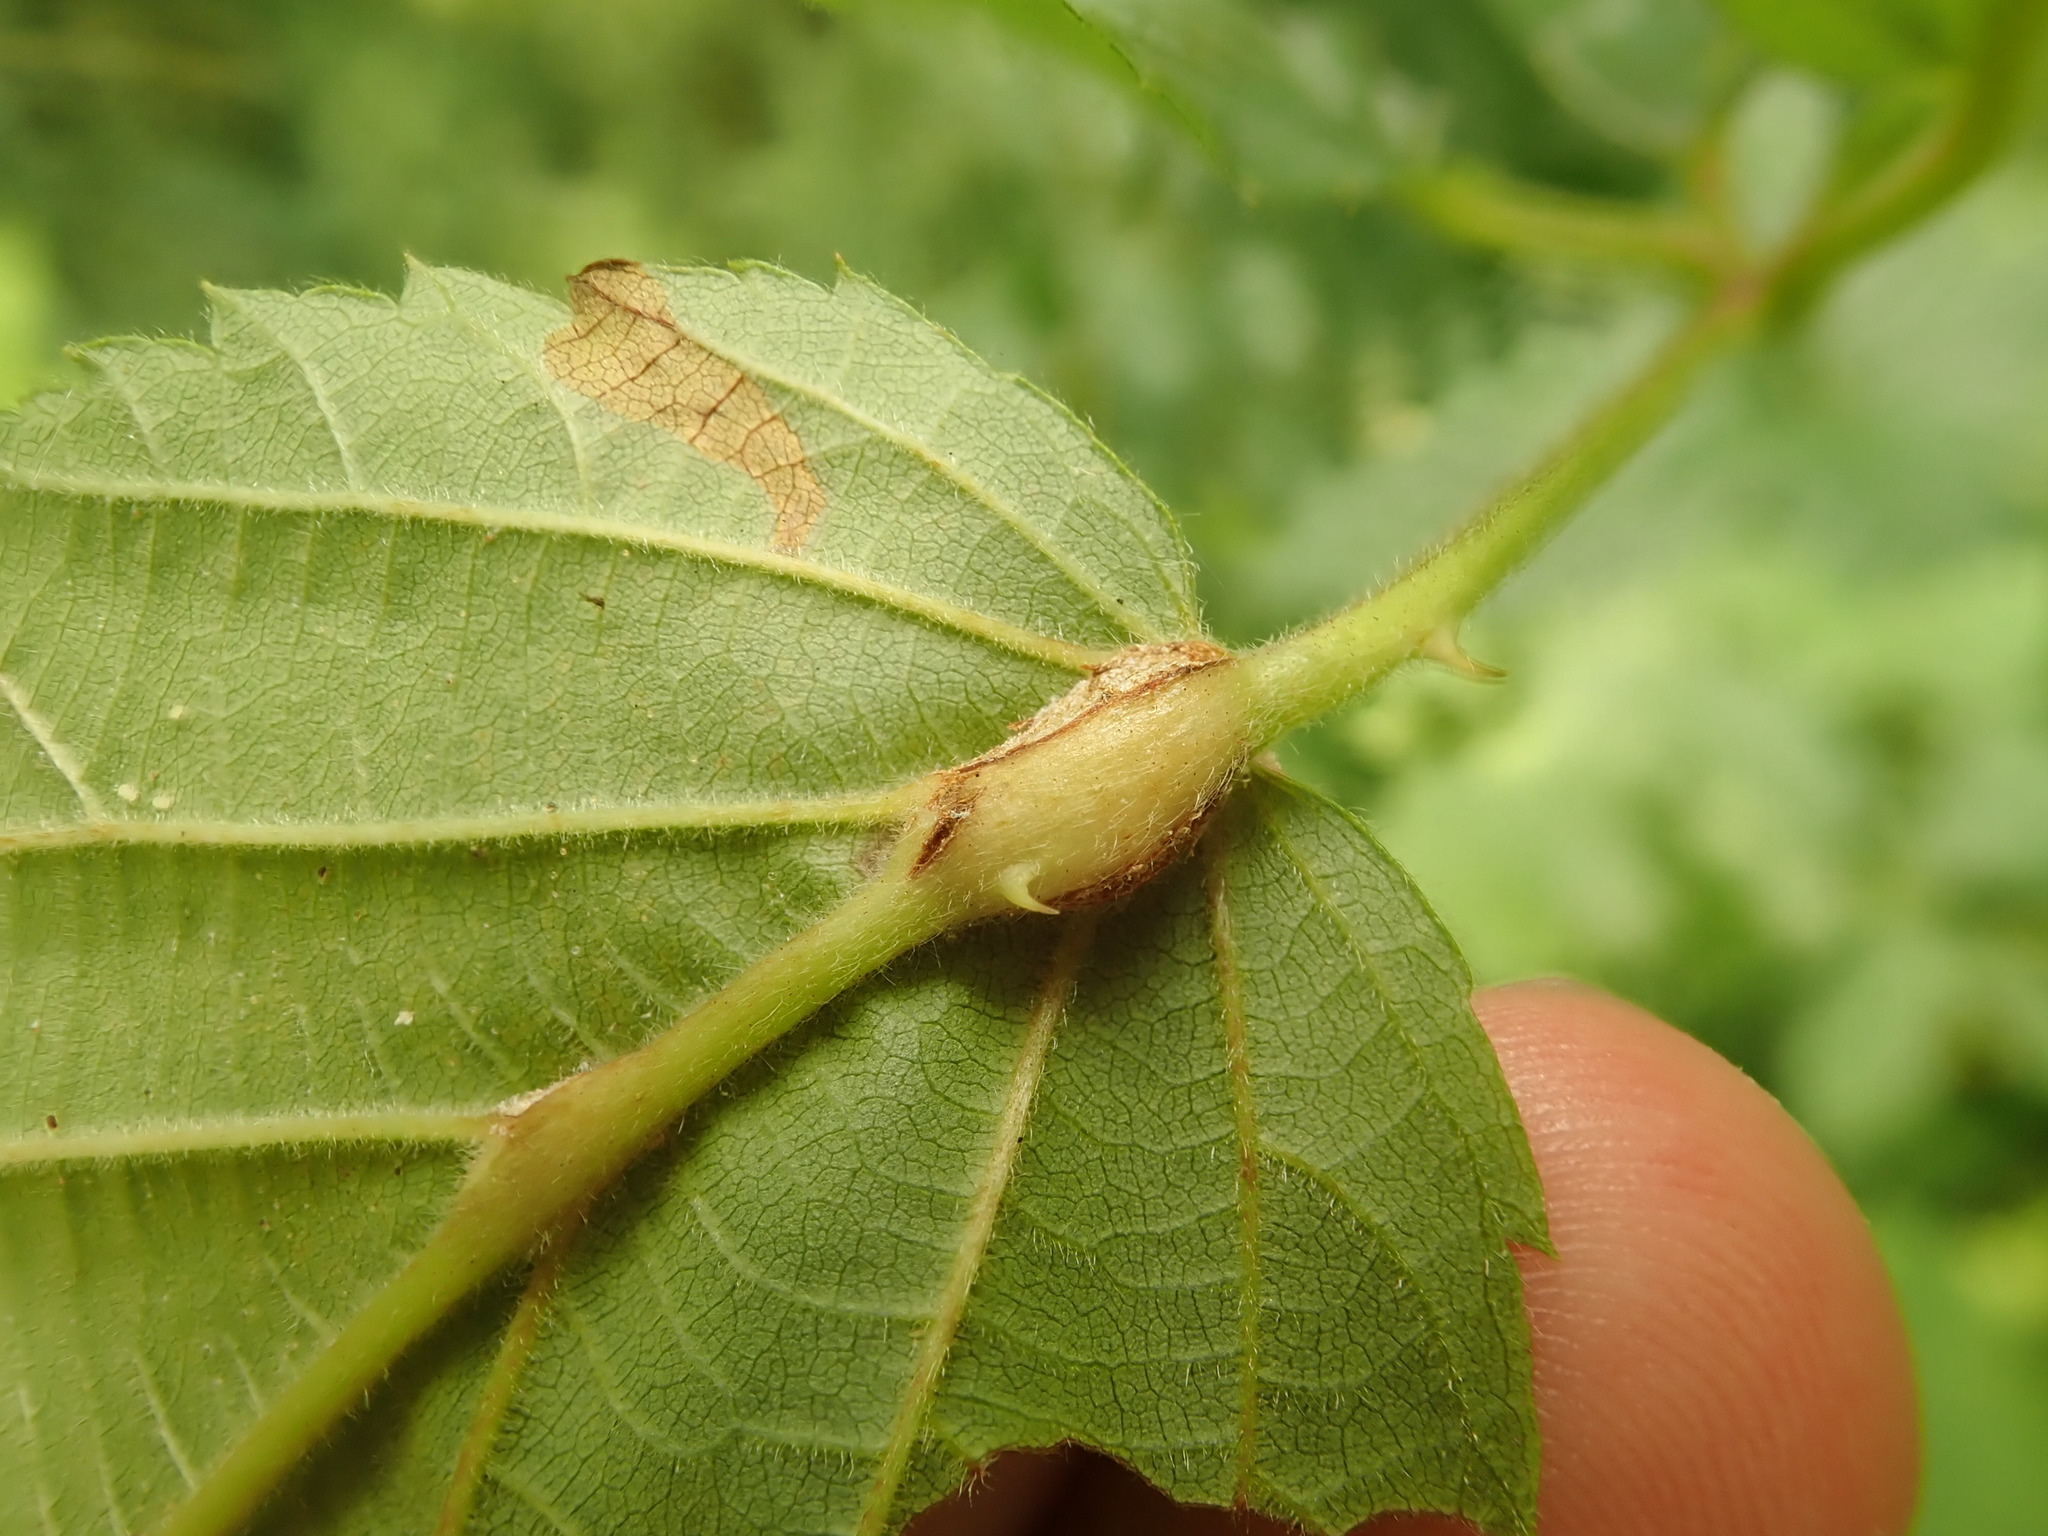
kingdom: Animalia
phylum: Arthropoda
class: Insecta
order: Diptera
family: Cecidomyiidae
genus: Neolasioptera
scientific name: Neolasioptera farinosa
